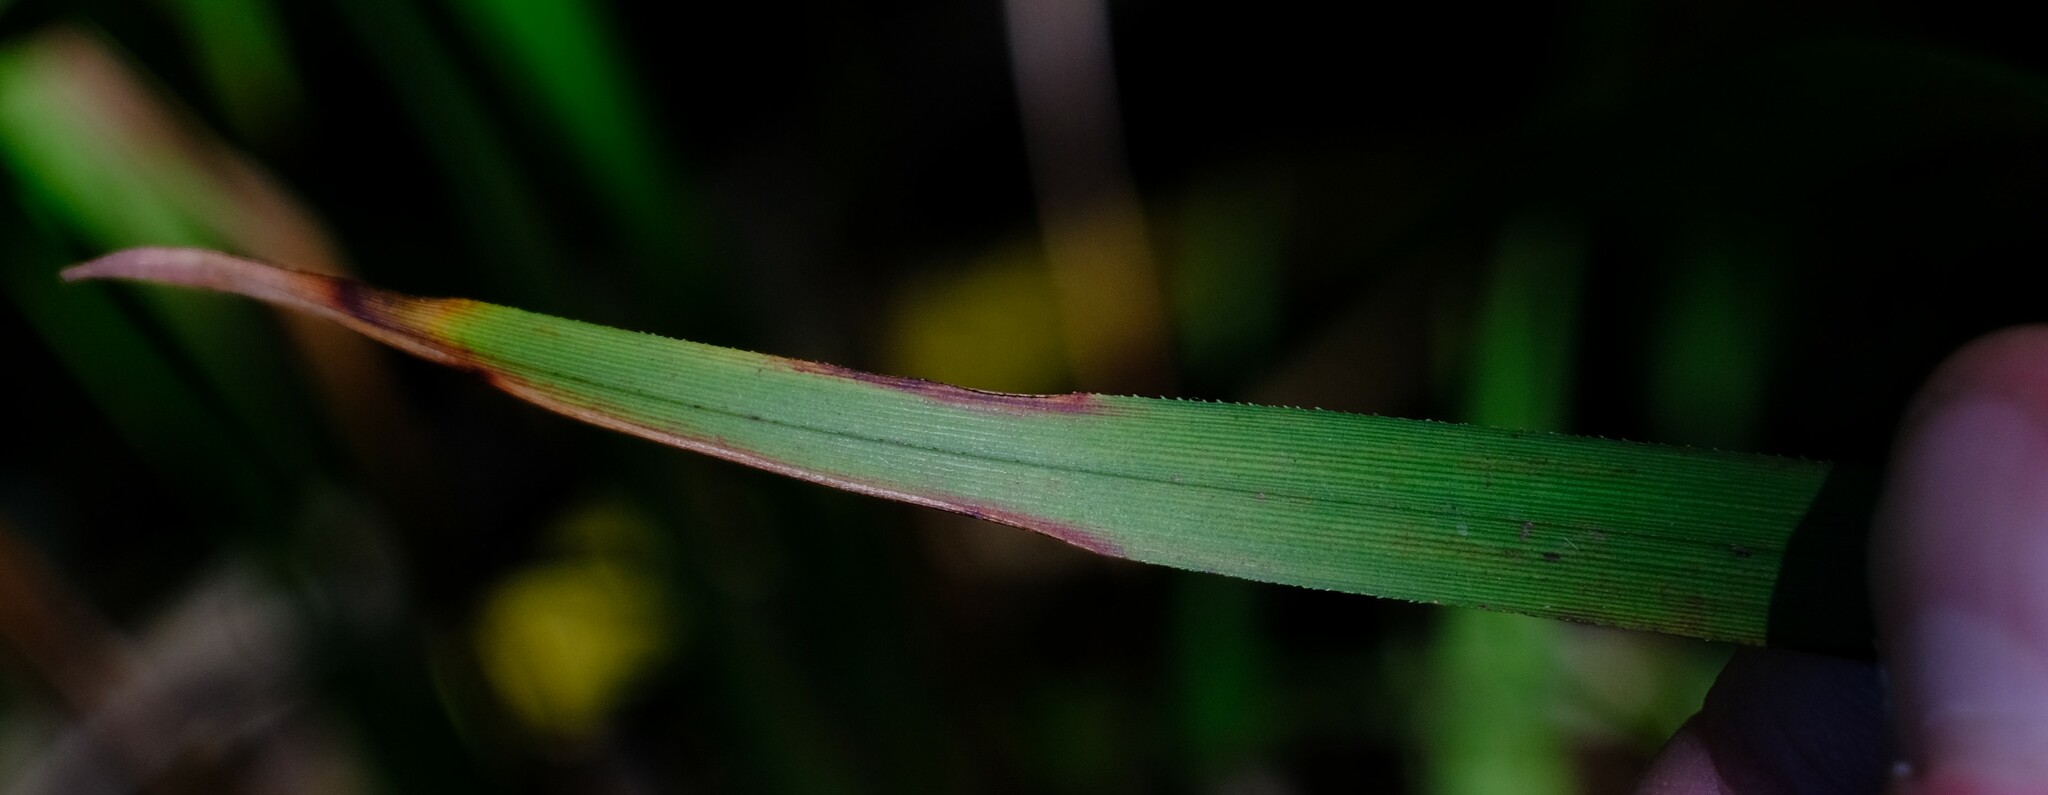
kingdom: Plantae
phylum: Tracheophyta
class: Liliopsida
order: Asparagales
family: Asphodelaceae
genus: Dianella
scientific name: Dianella caerulea
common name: Blue flax-lily
